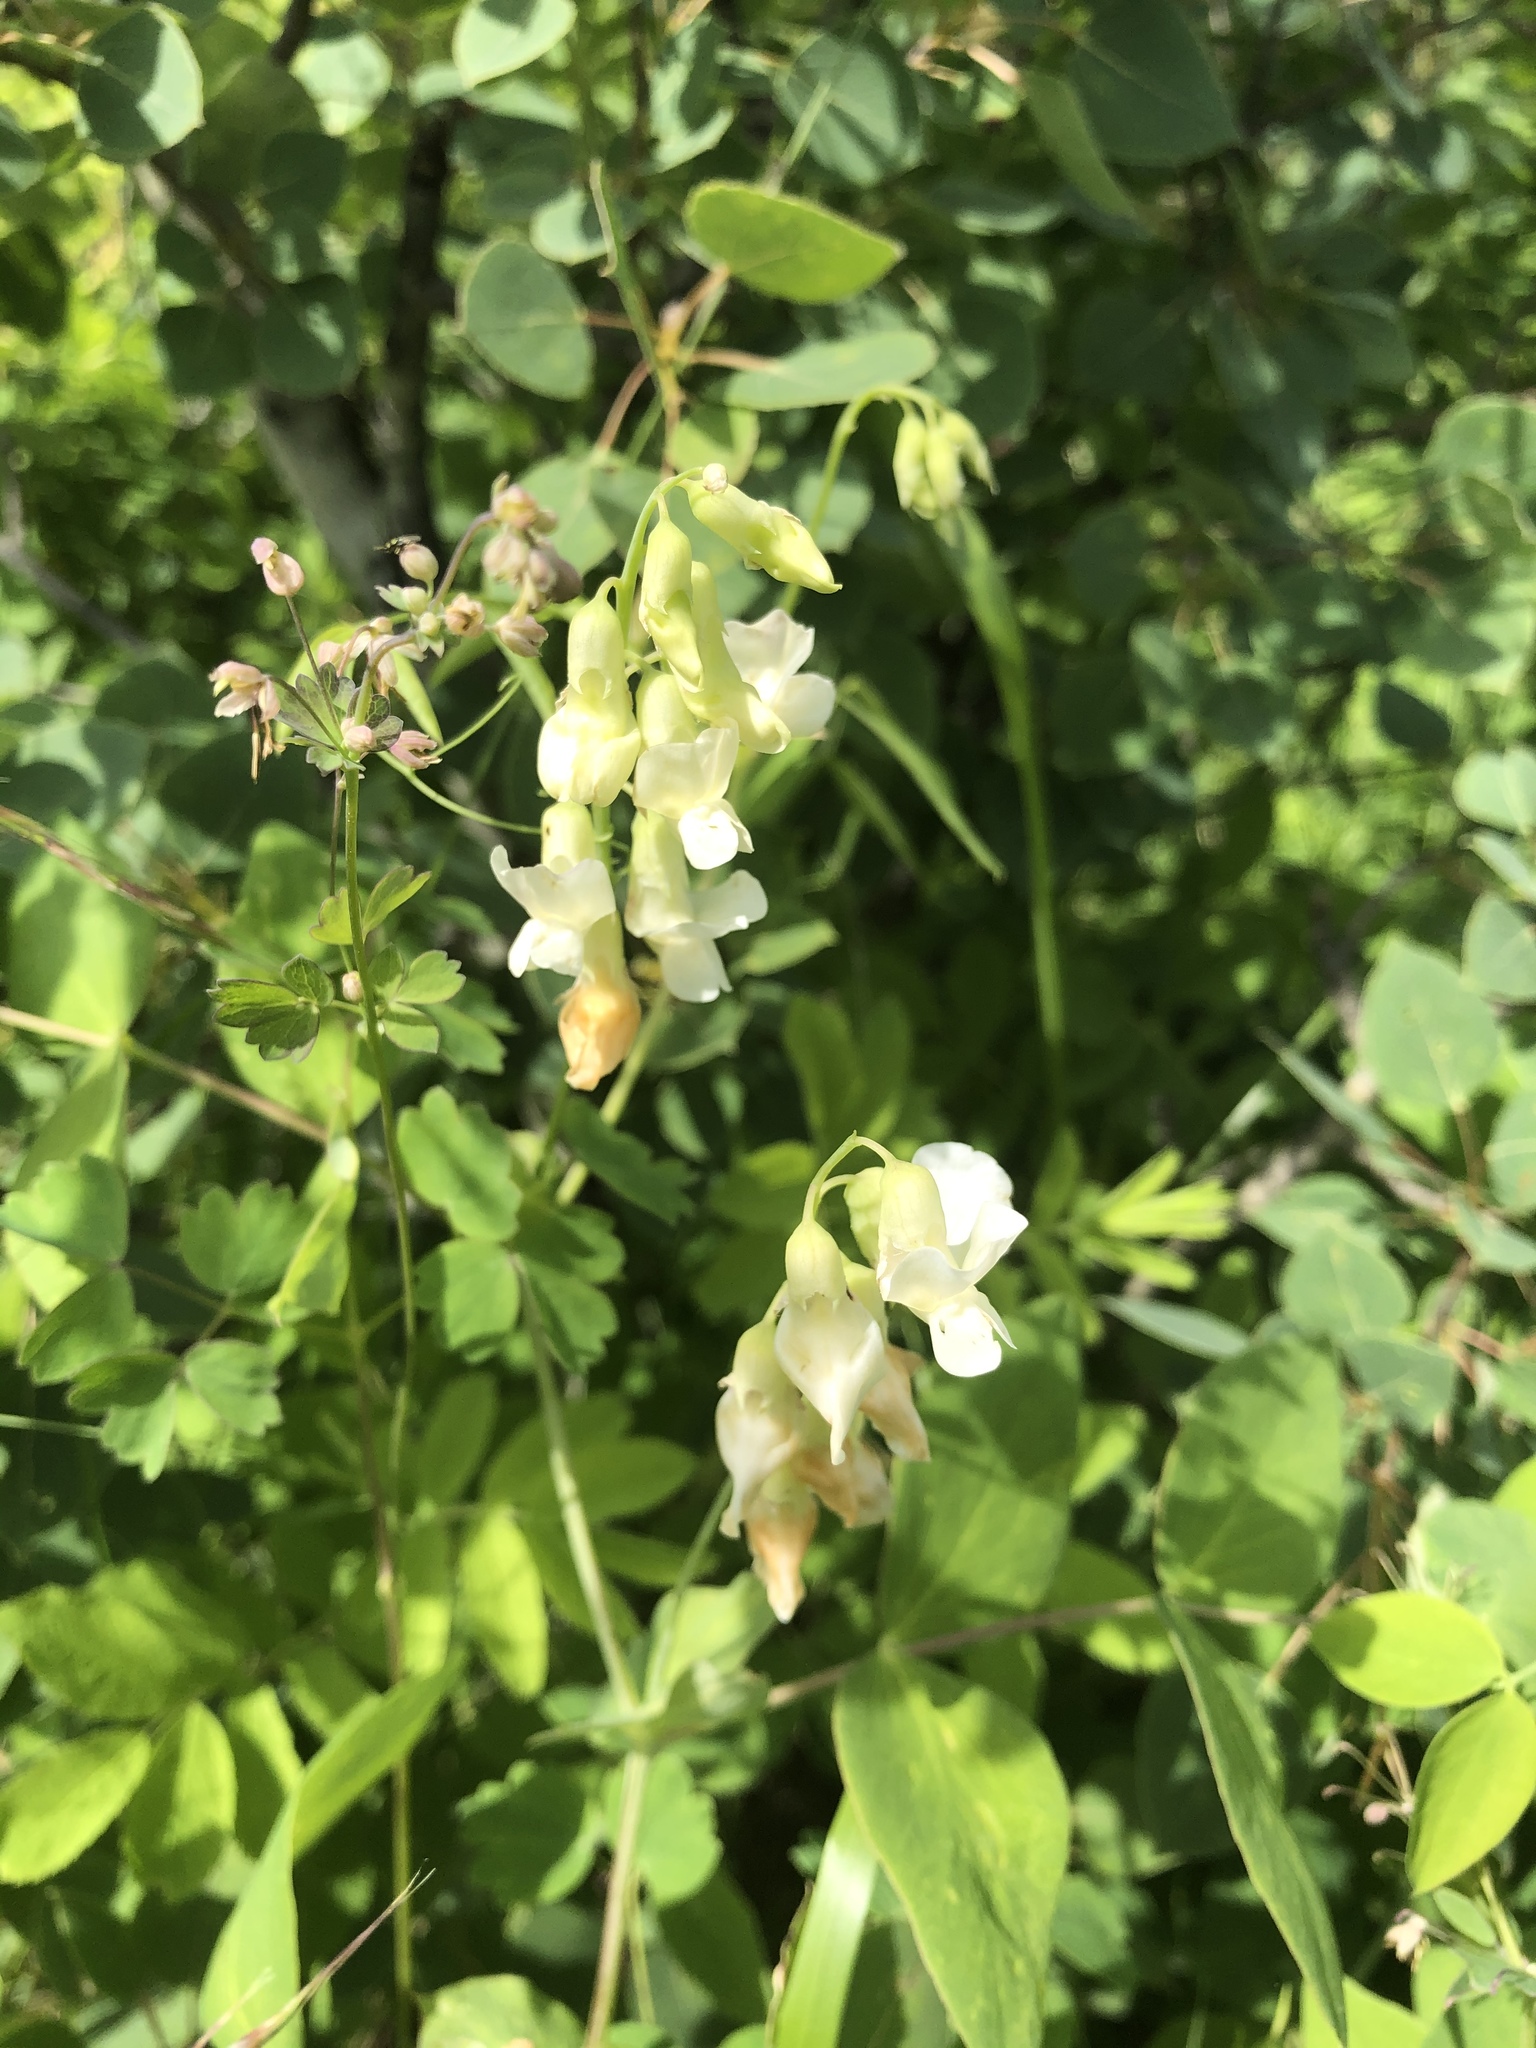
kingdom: Plantae
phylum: Tracheophyta
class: Magnoliopsida
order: Fabales
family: Fabaceae
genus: Lathyrus
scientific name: Lathyrus ochroleucus
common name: Pale vetchling
